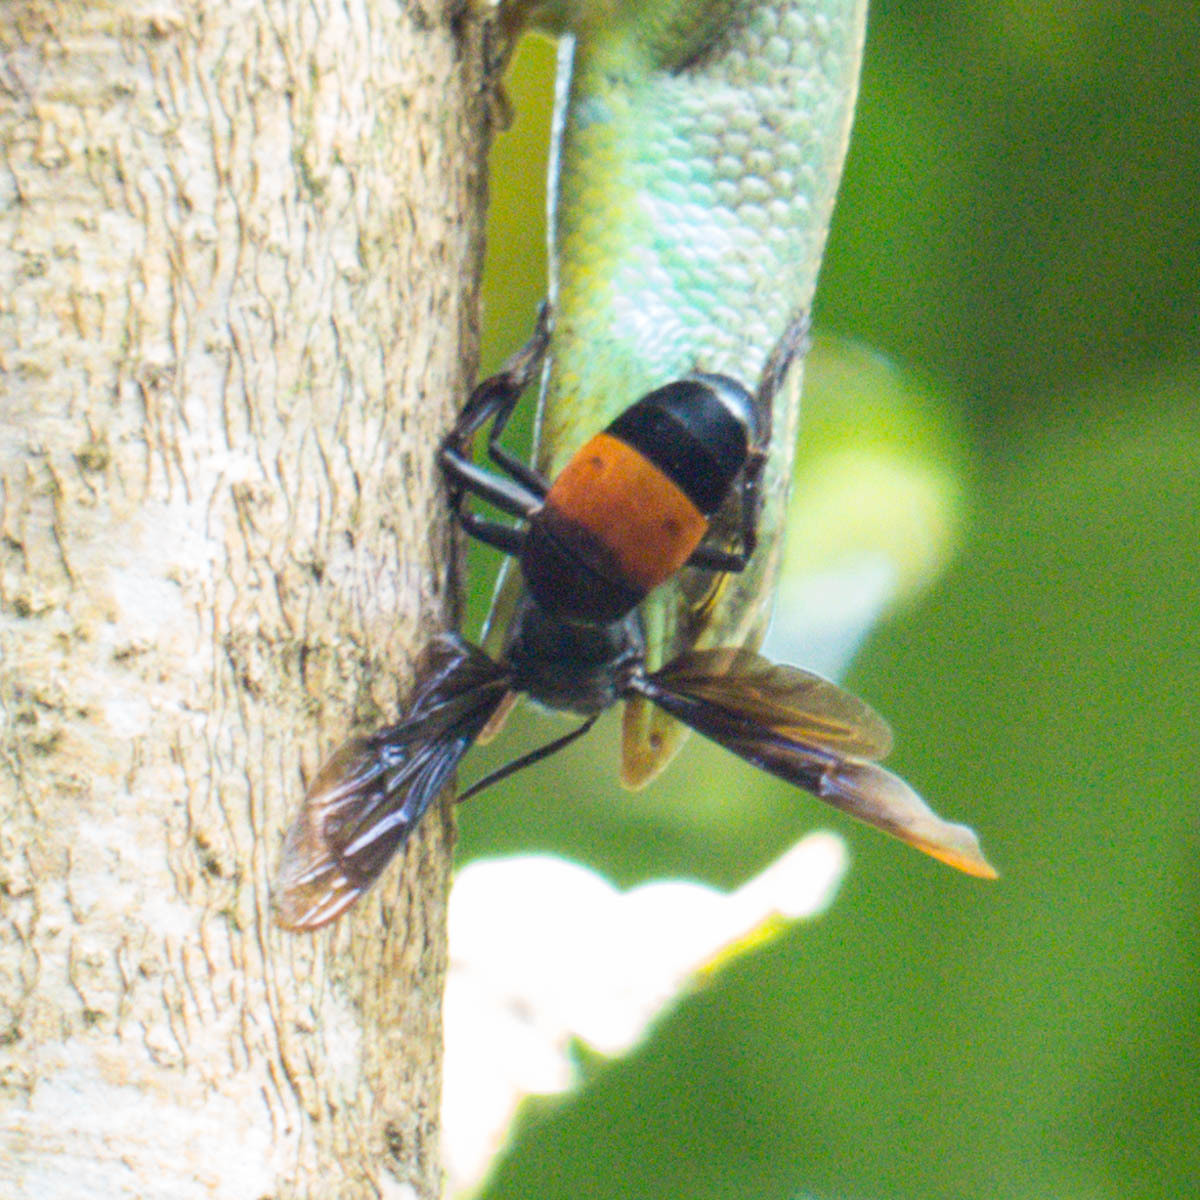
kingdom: Animalia
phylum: Arthropoda
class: Insecta
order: Hymenoptera
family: Vespidae
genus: Vespa
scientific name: Vespa tropica
